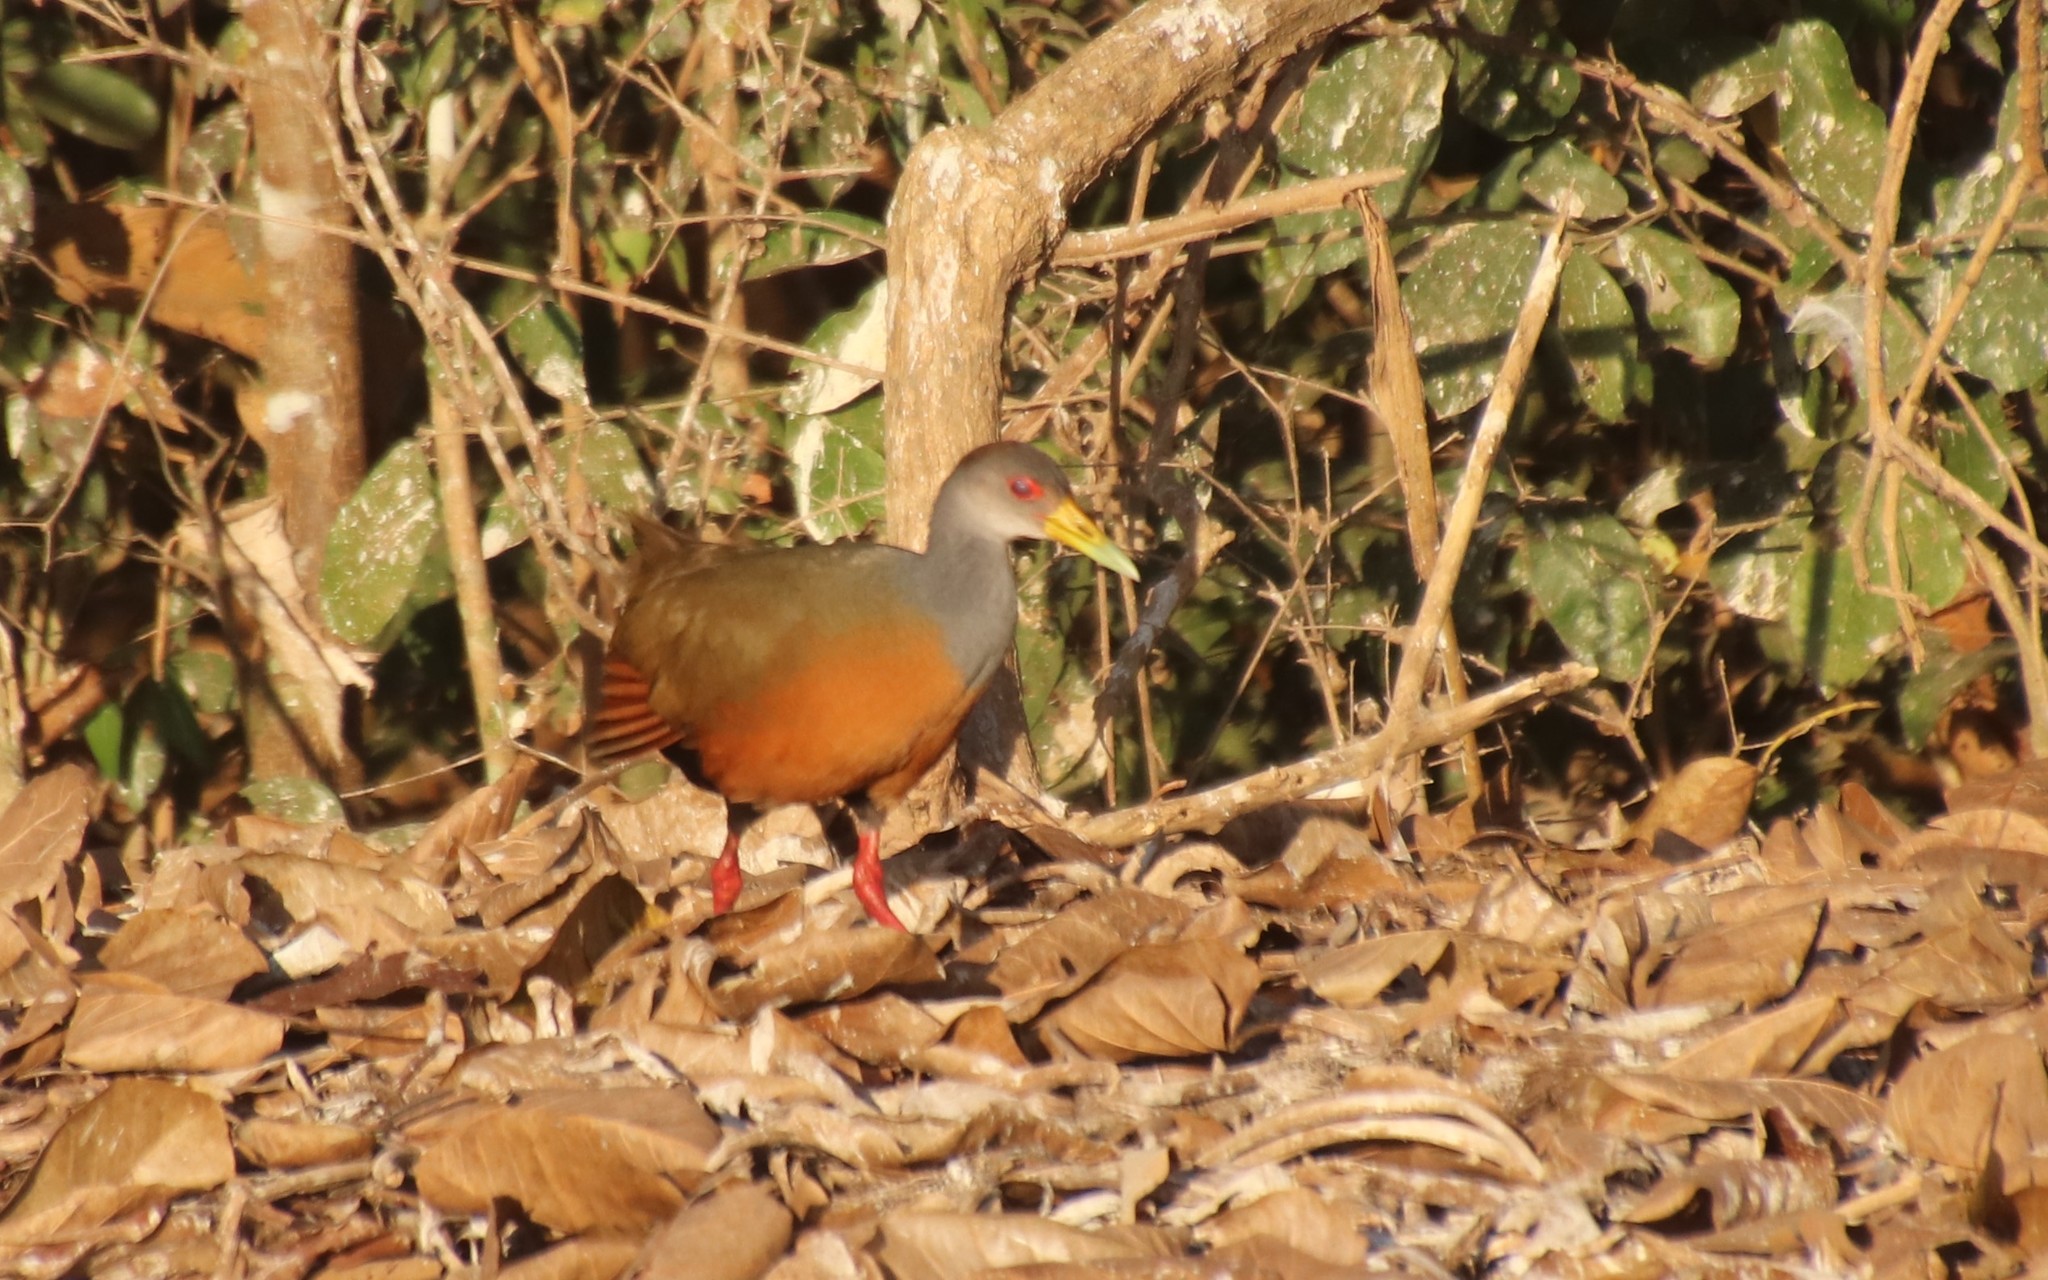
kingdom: Animalia
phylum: Chordata
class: Aves
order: Gruiformes
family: Rallidae
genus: Aramides
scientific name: Aramides cajanea
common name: Gray-necked wood-rail
